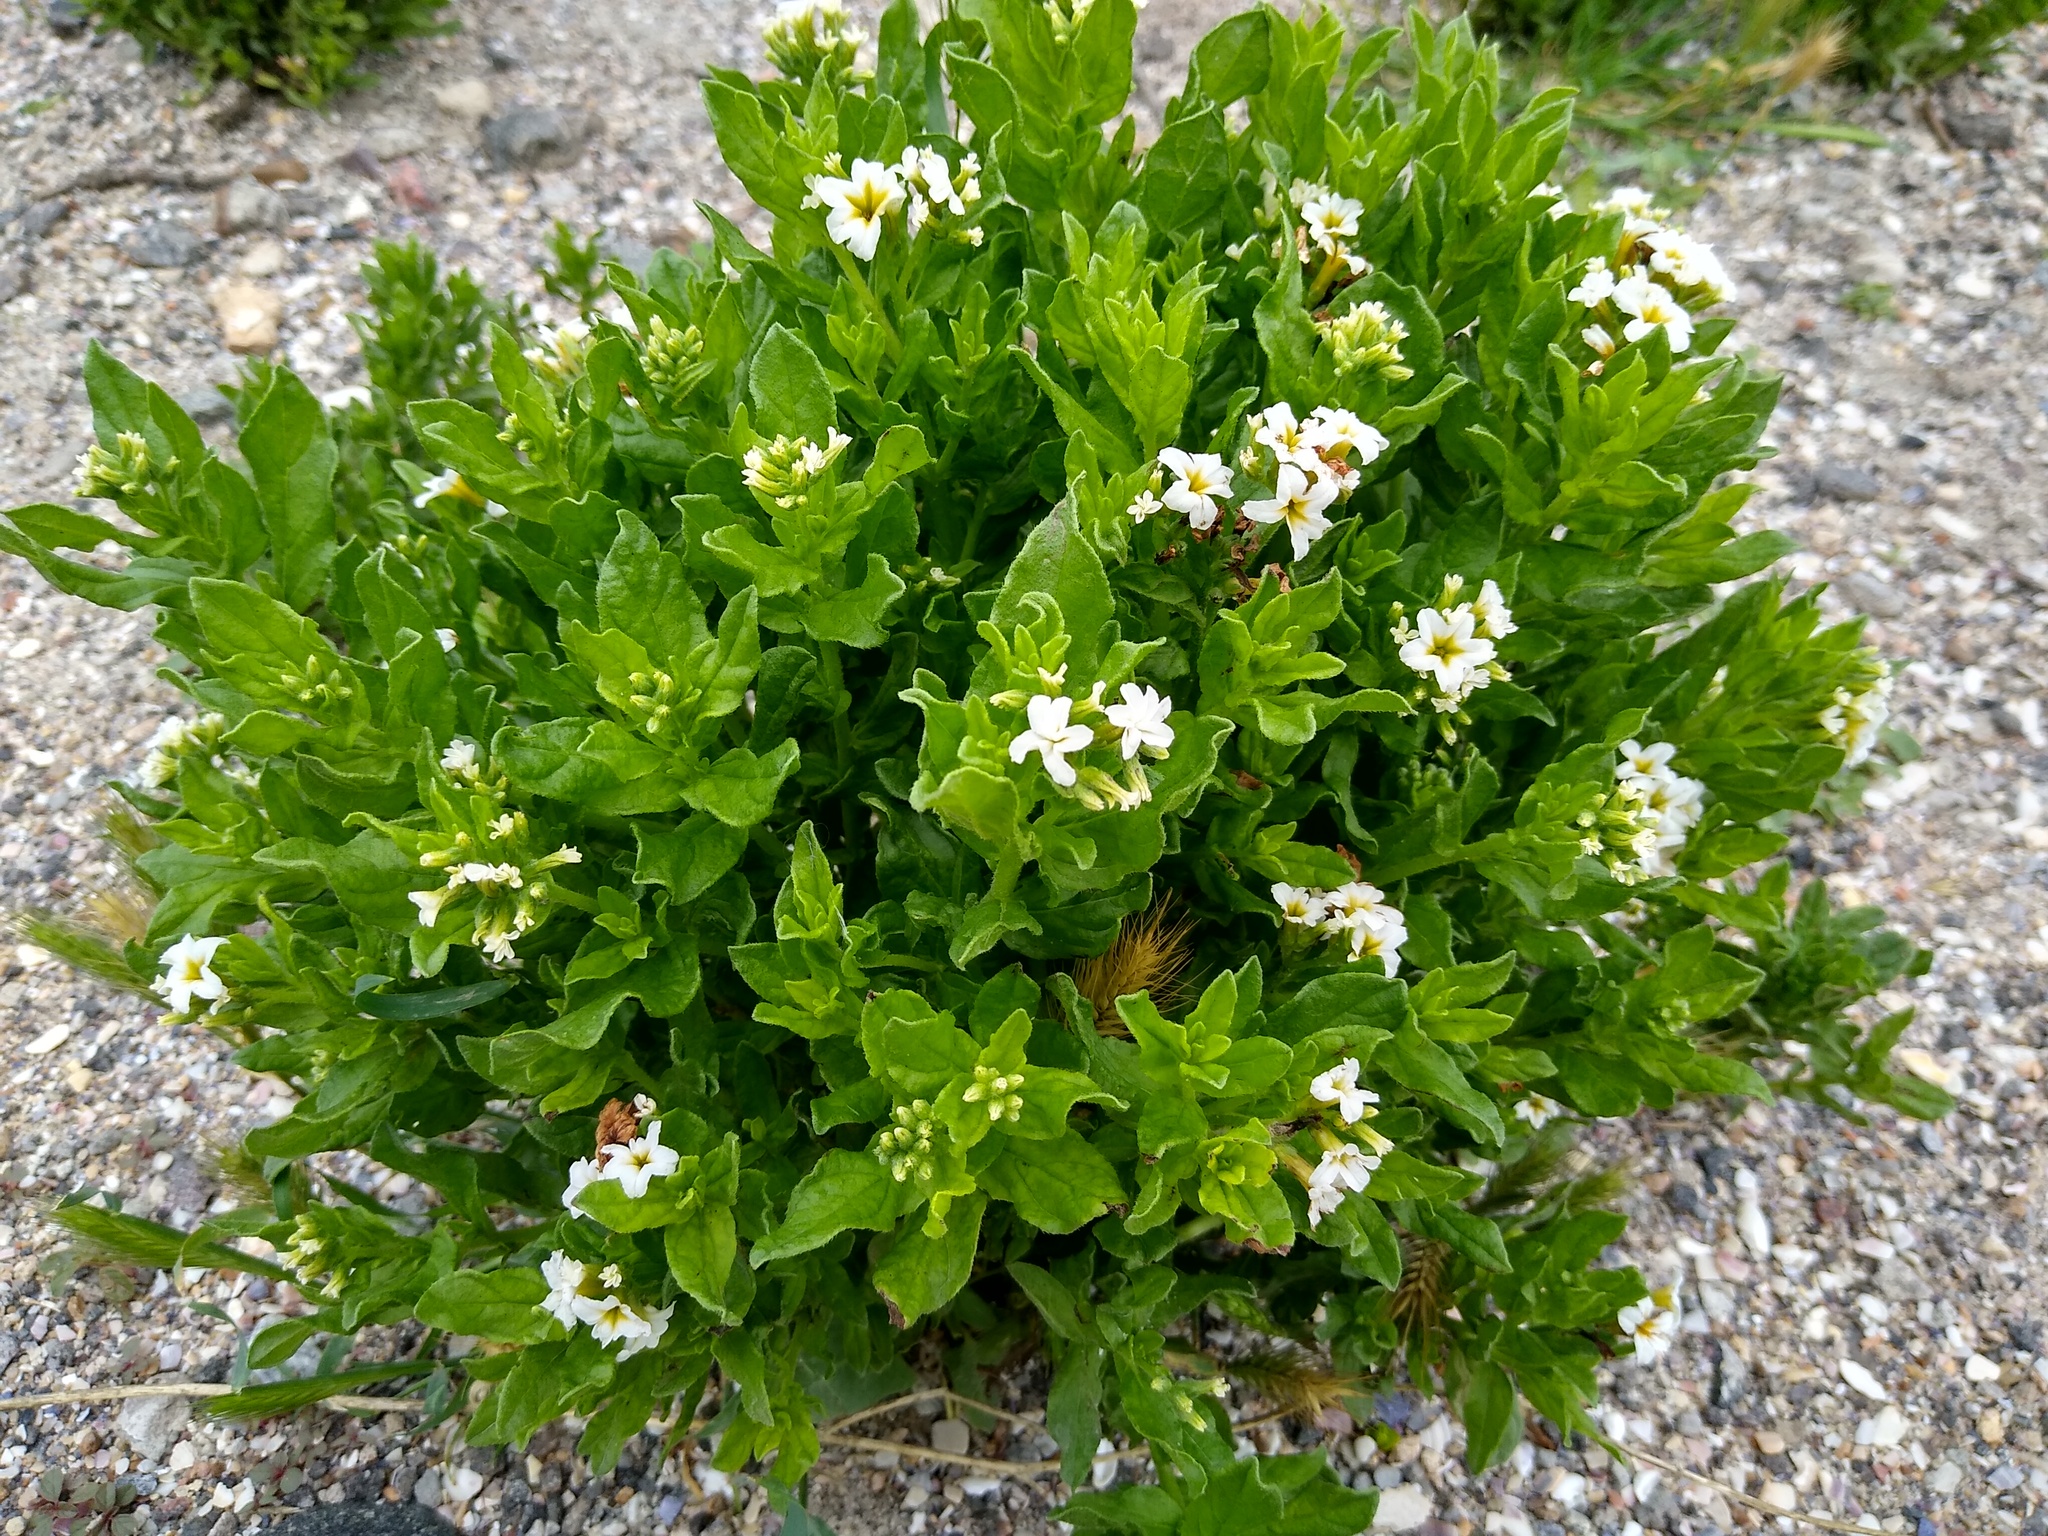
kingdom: Plantae
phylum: Tracheophyta
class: Magnoliopsida
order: Boraginales
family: Heliotropiaceae
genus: Tournefortia
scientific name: Tournefortia sibirica
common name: Siberian sea rosemary
